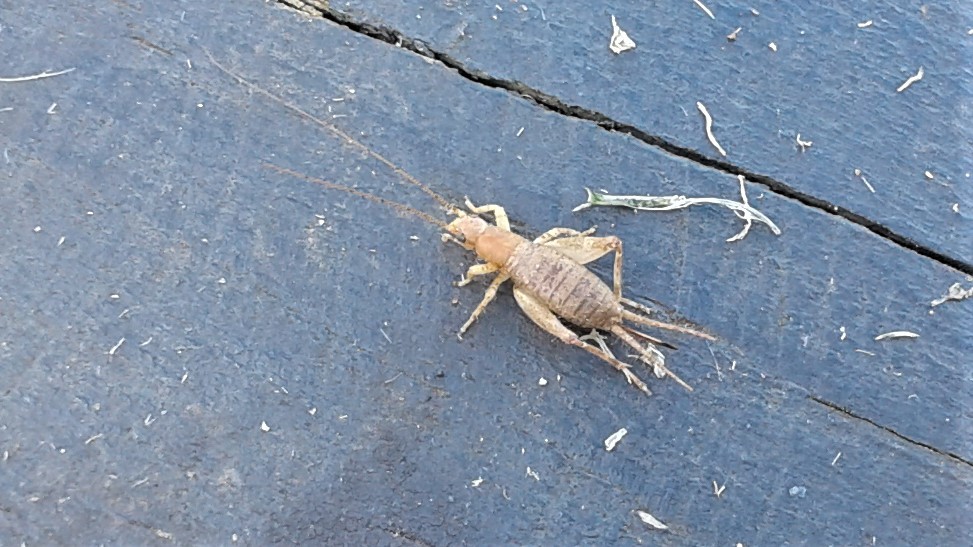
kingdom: Animalia
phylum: Arthropoda
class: Insecta
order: Orthoptera
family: Mogoplistidae
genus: Ornebius
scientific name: Ornebius aperta
